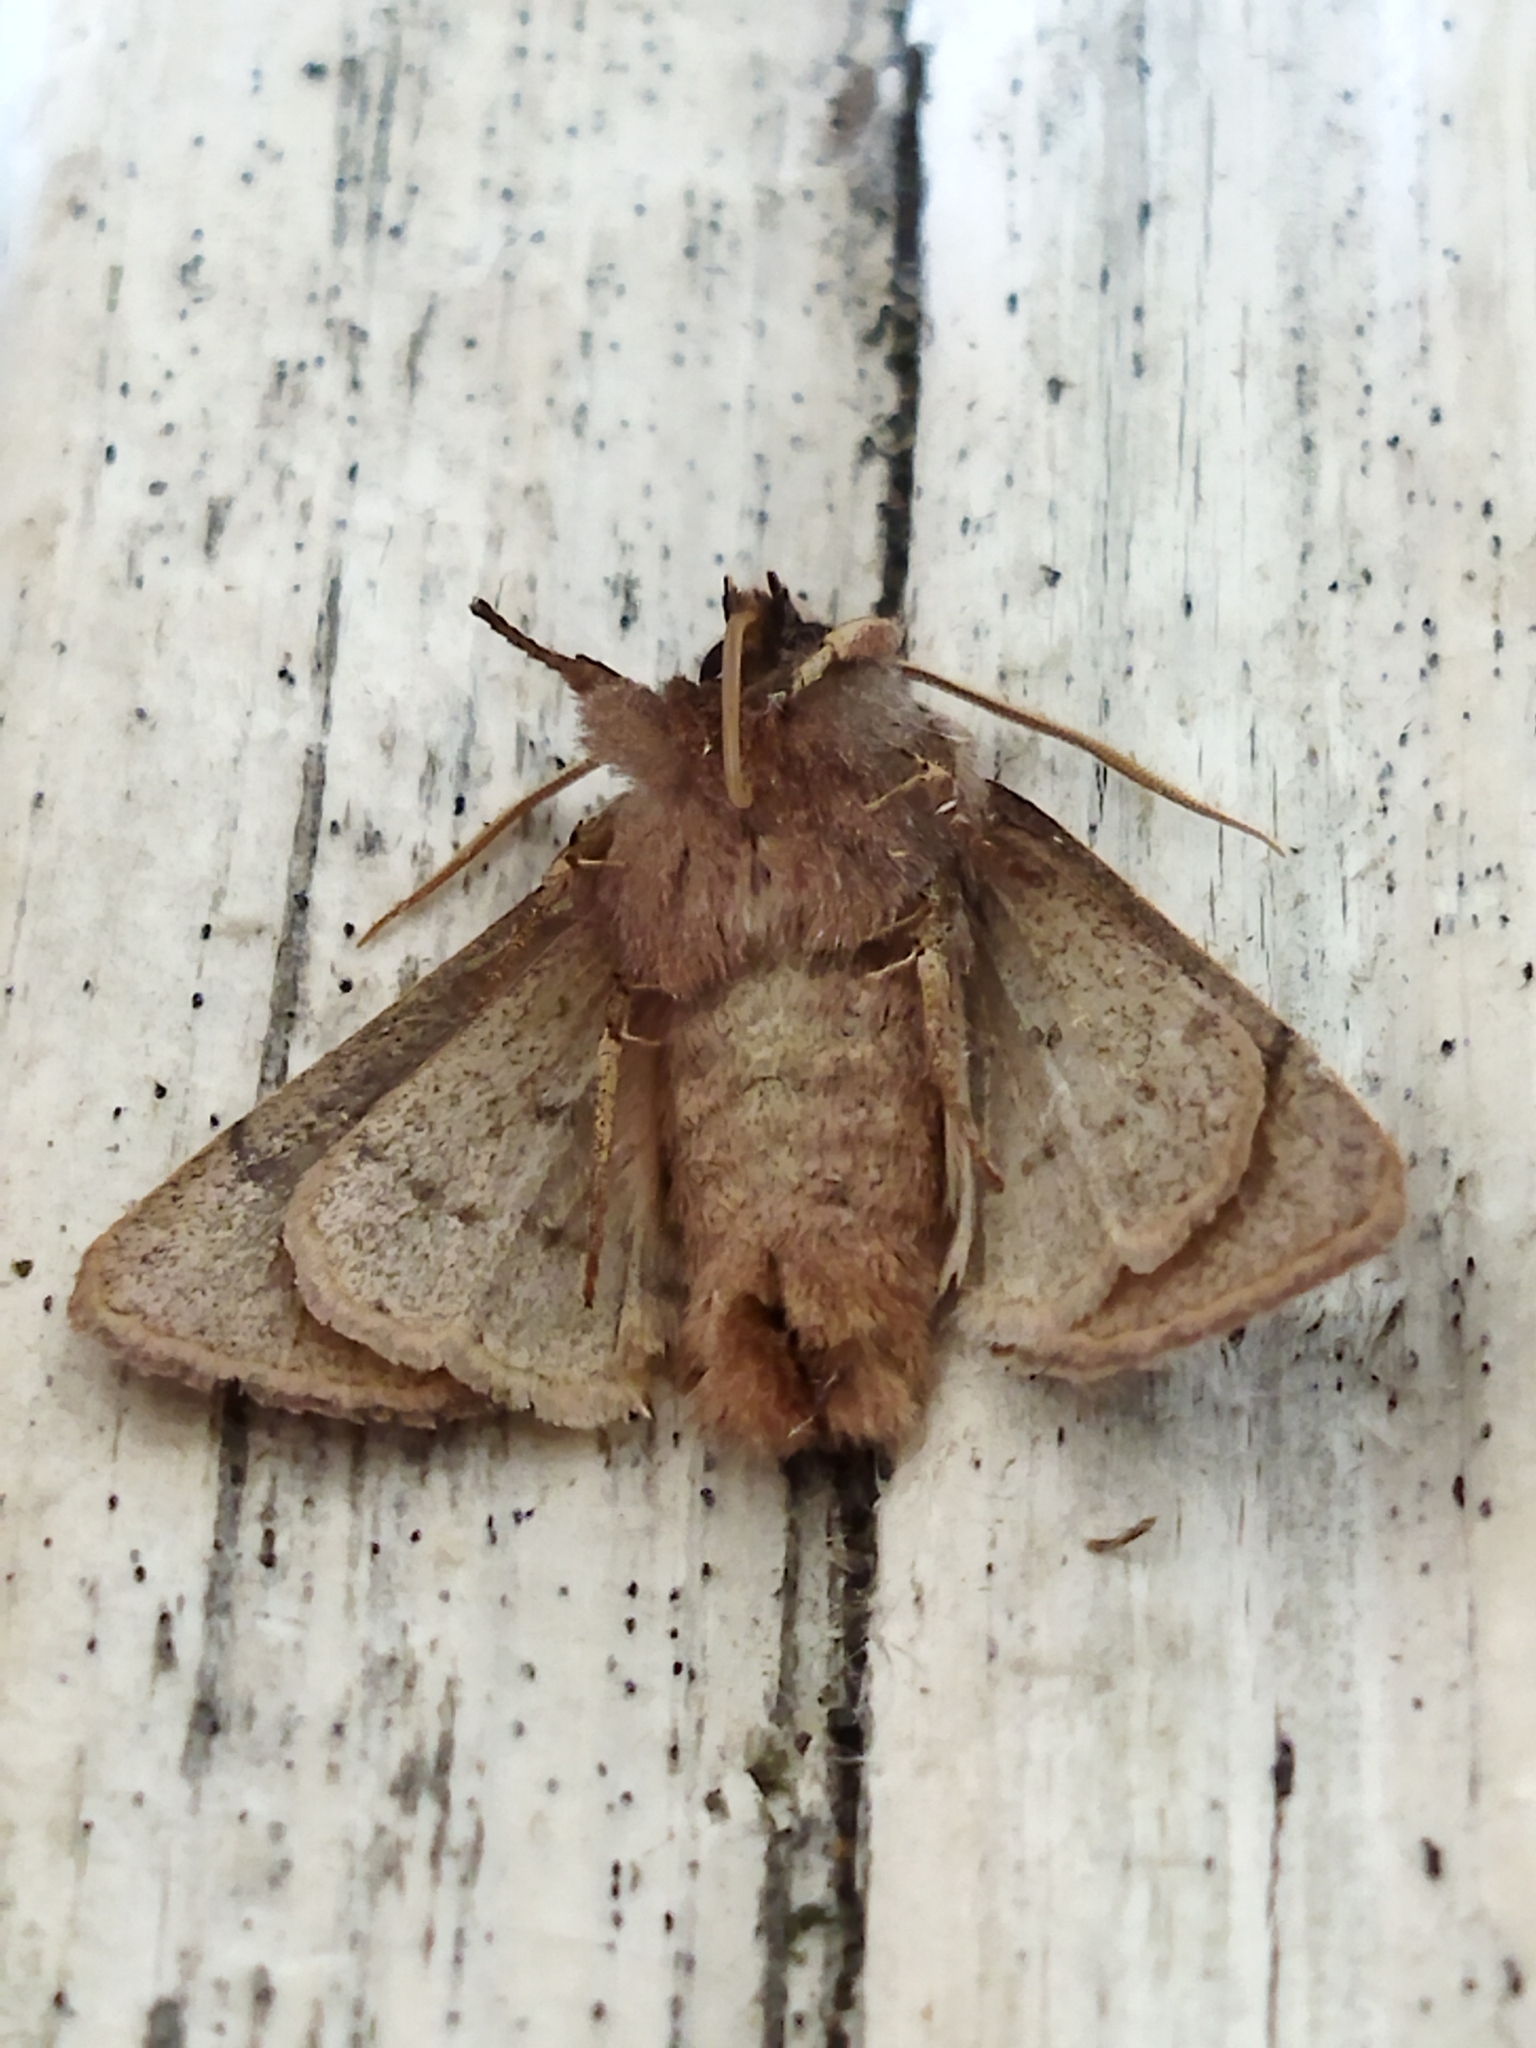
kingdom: Animalia
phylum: Arthropoda
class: Insecta
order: Lepidoptera
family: Noctuidae
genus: Orthosia
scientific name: Orthosia cerasi
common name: Common quaker
